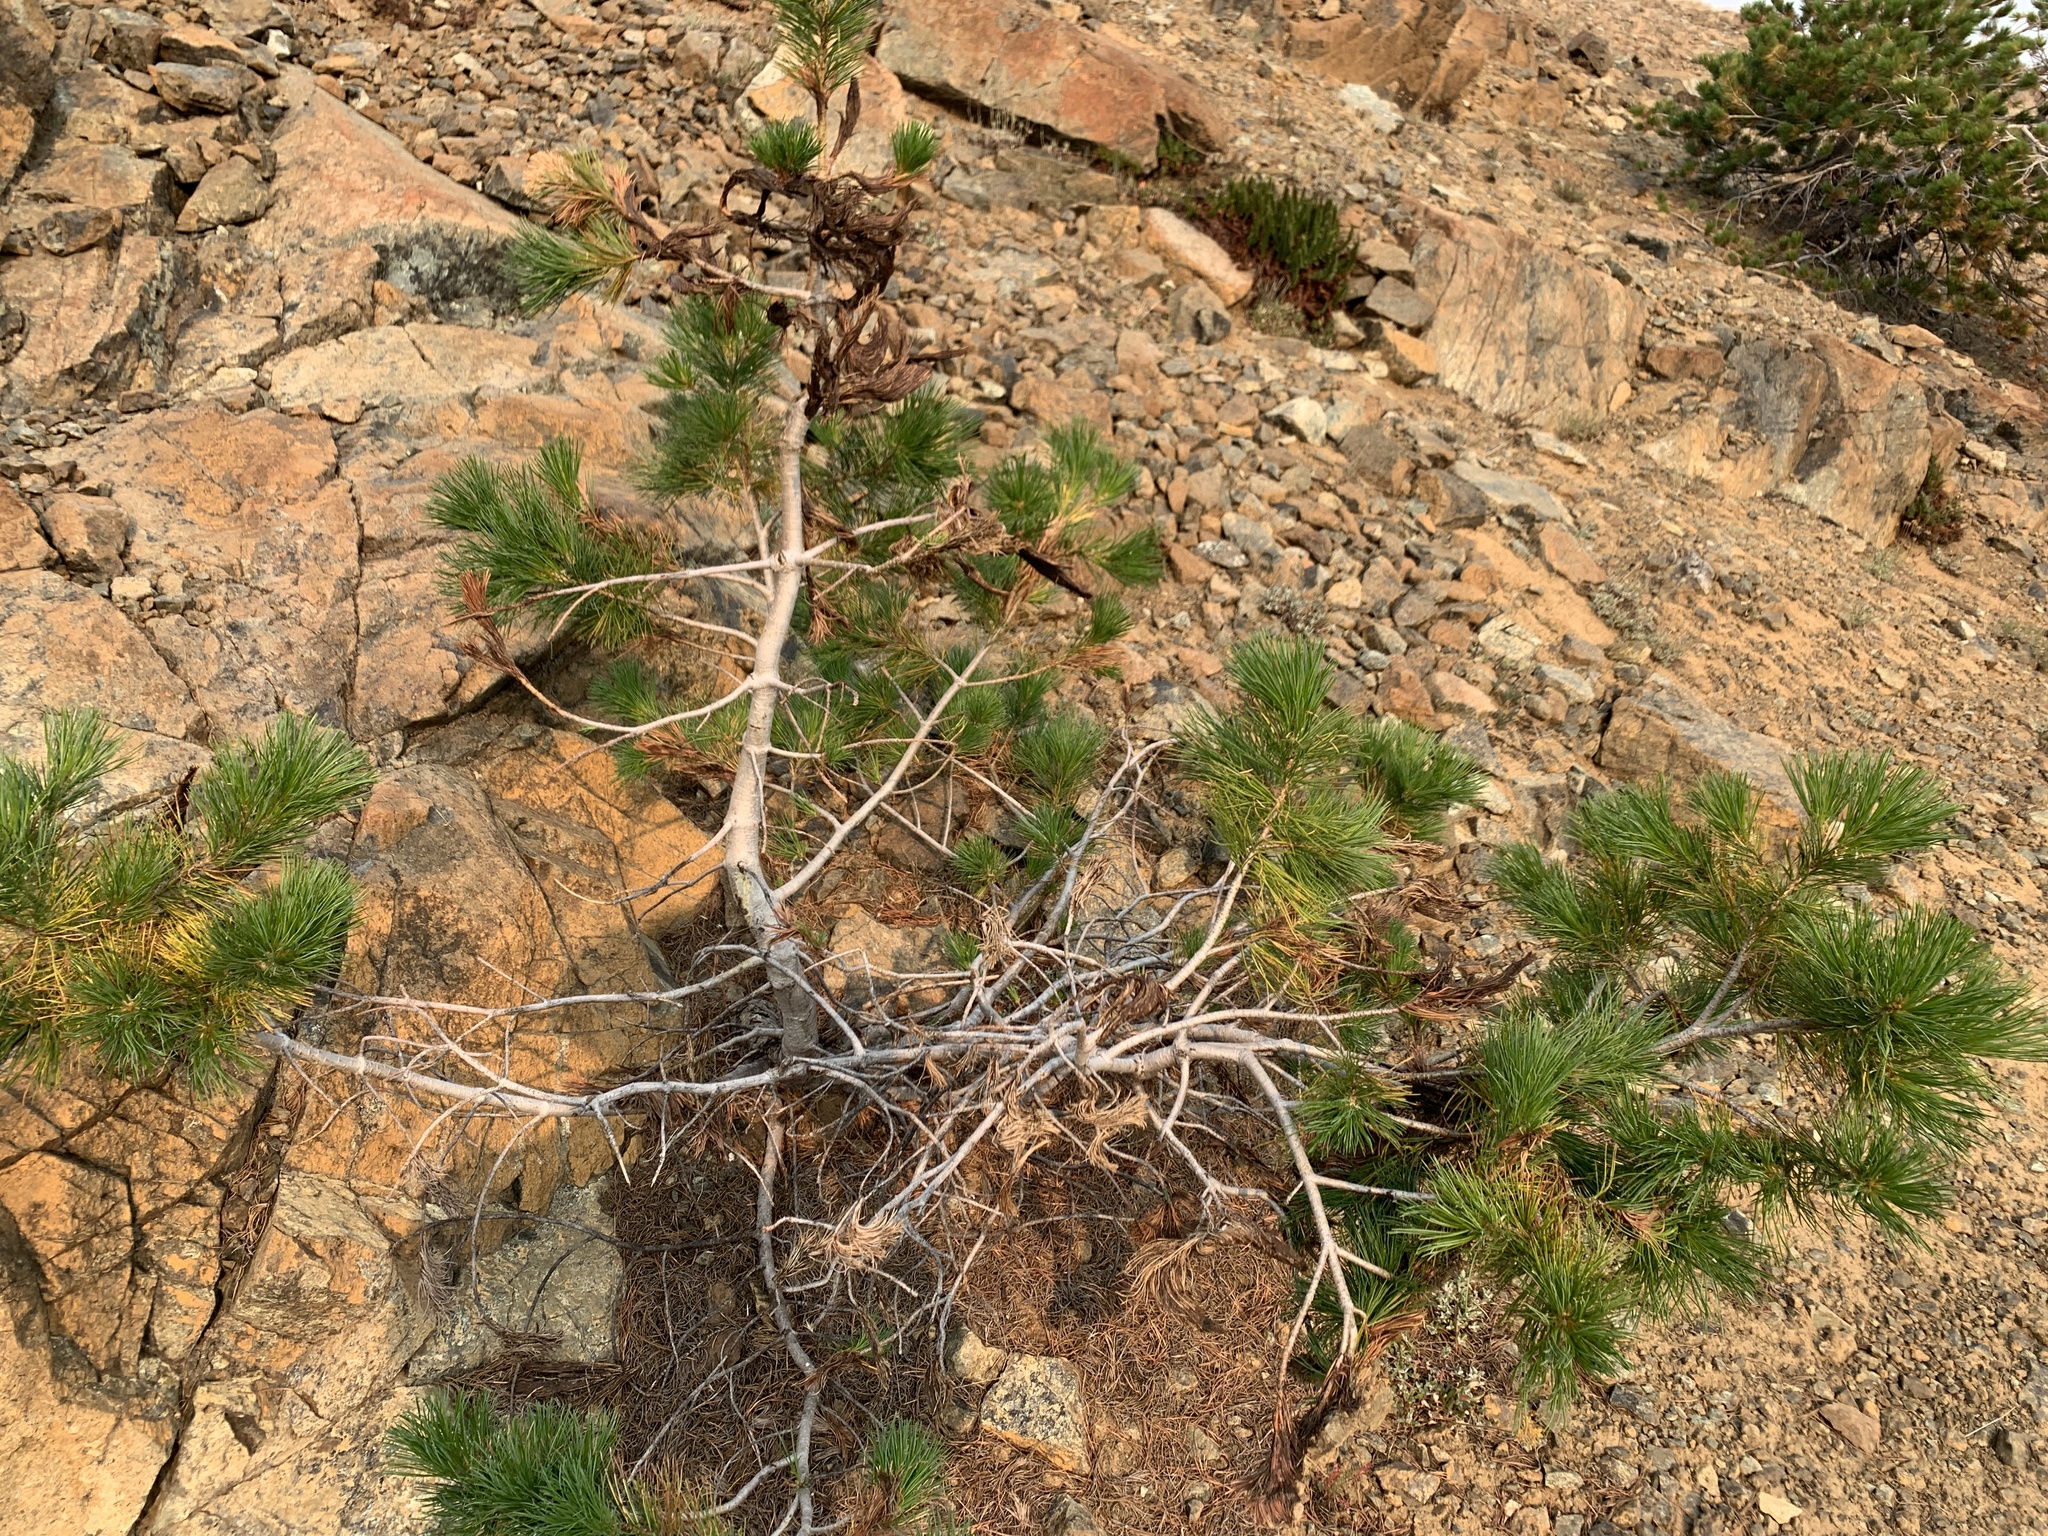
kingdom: Plantae
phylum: Tracheophyta
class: Pinopsida
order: Pinales
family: Pinaceae
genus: Pinus
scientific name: Pinus albicaulis
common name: Whitebark pine
